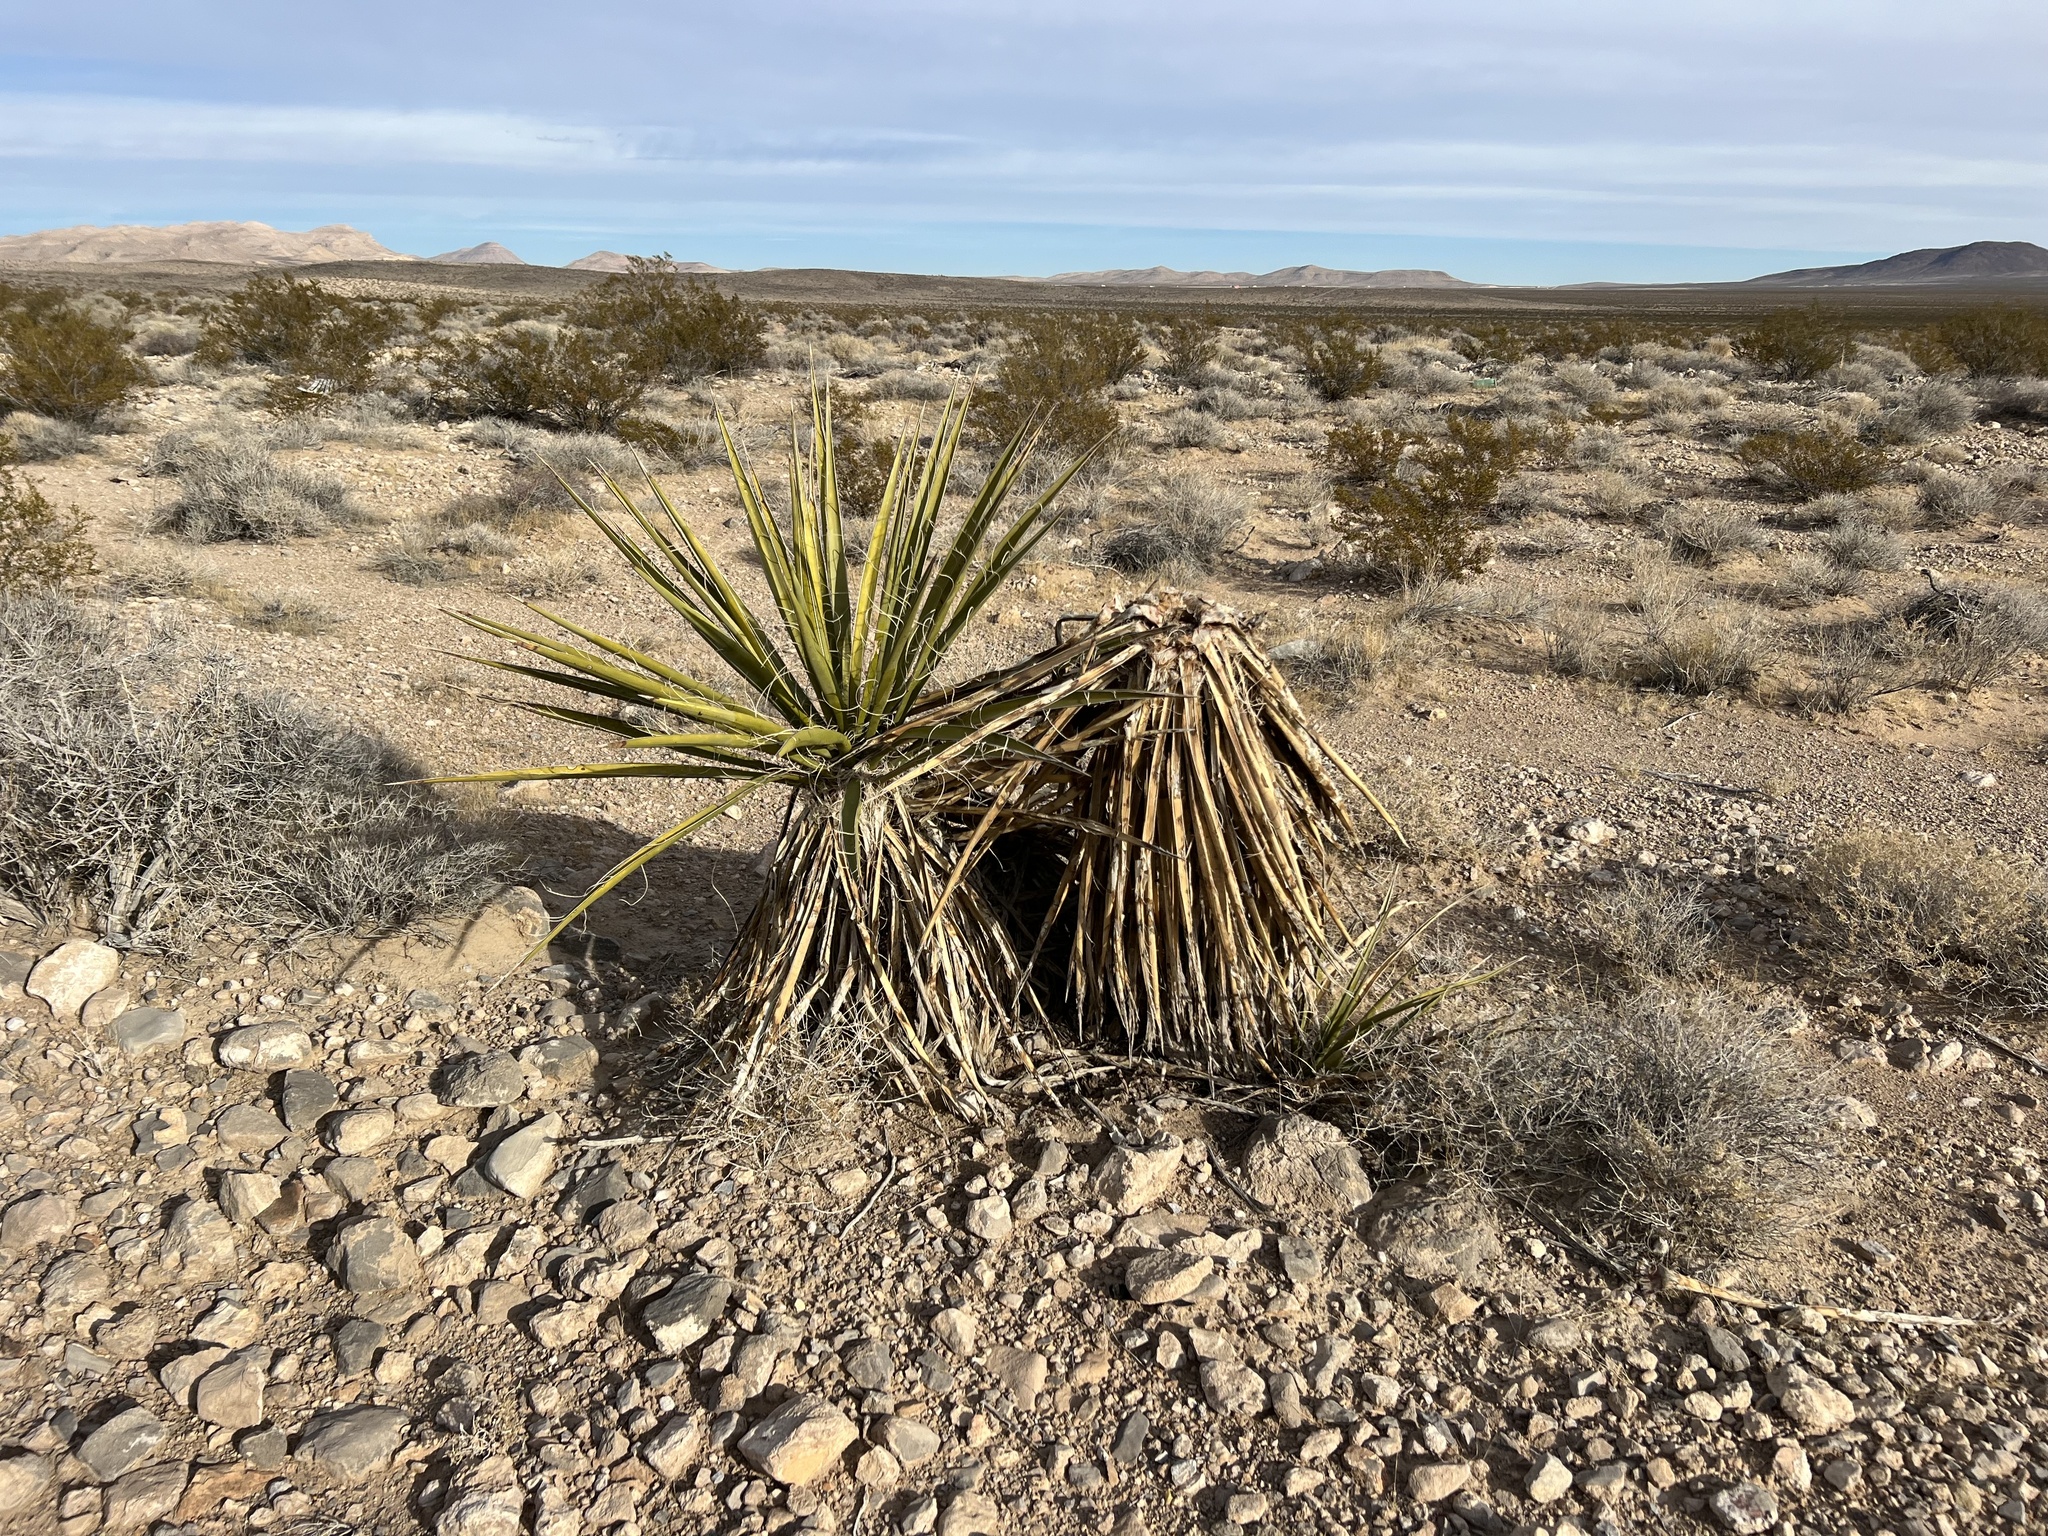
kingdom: Plantae
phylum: Tracheophyta
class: Liliopsida
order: Asparagales
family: Asparagaceae
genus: Yucca
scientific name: Yucca schidigera
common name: Mojave yucca
